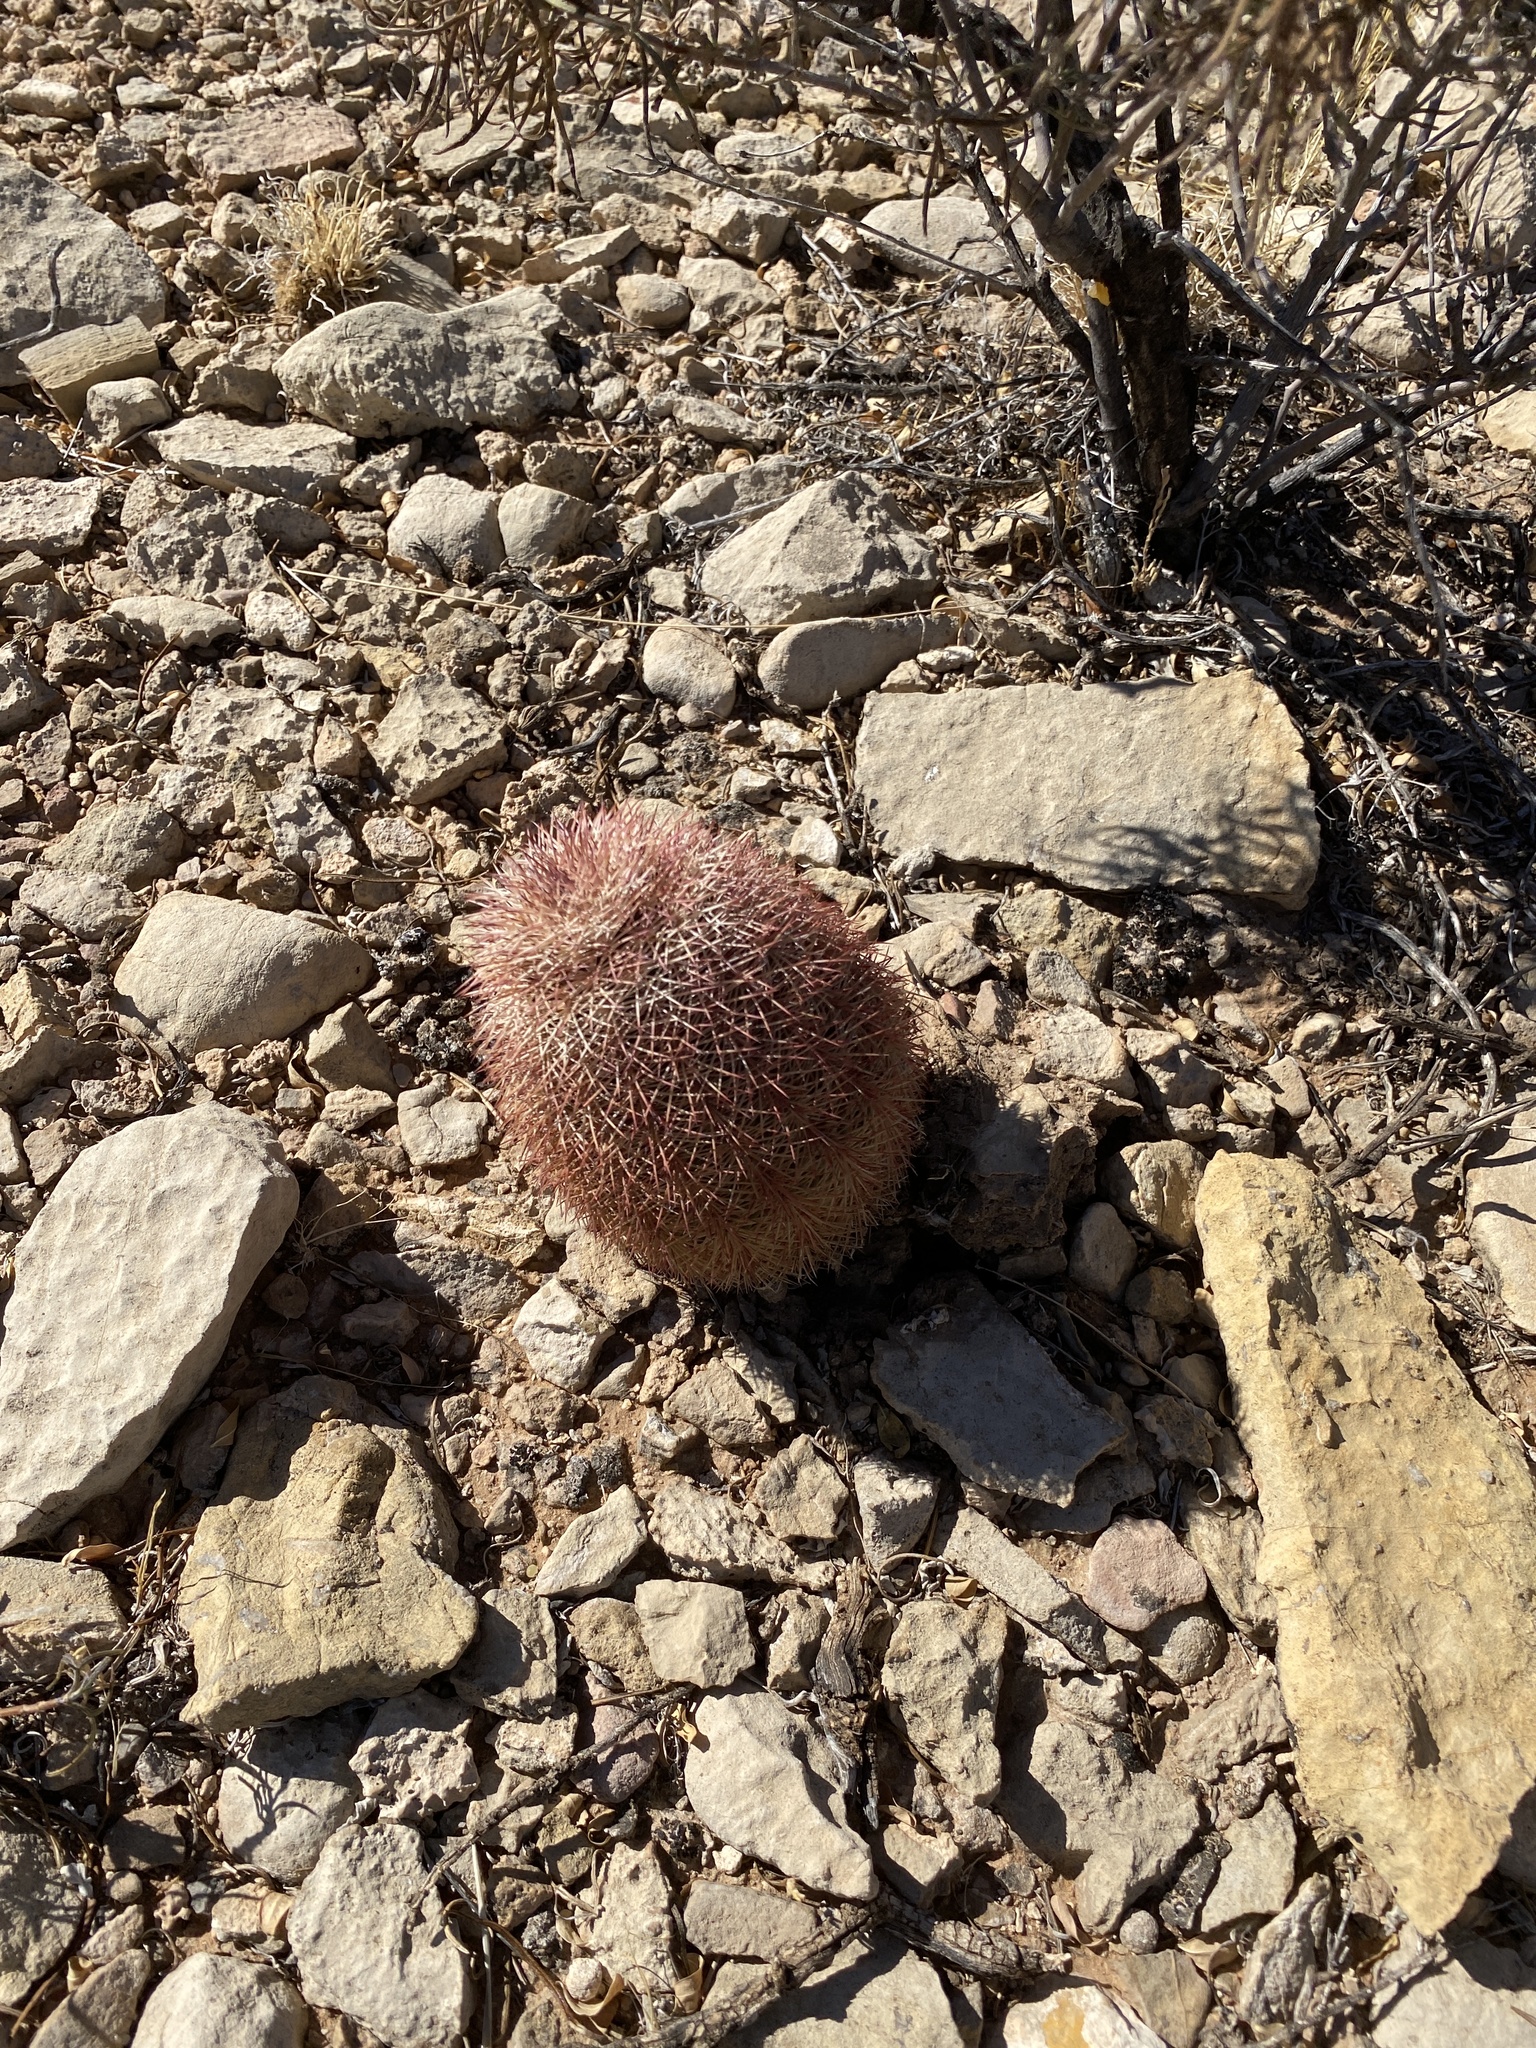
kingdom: Plantae
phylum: Tracheophyta
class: Magnoliopsida
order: Caryophyllales
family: Cactaceae
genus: Echinocereus
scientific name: Echinocereus dasyacanthus
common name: Spiny hedgehog cactus
